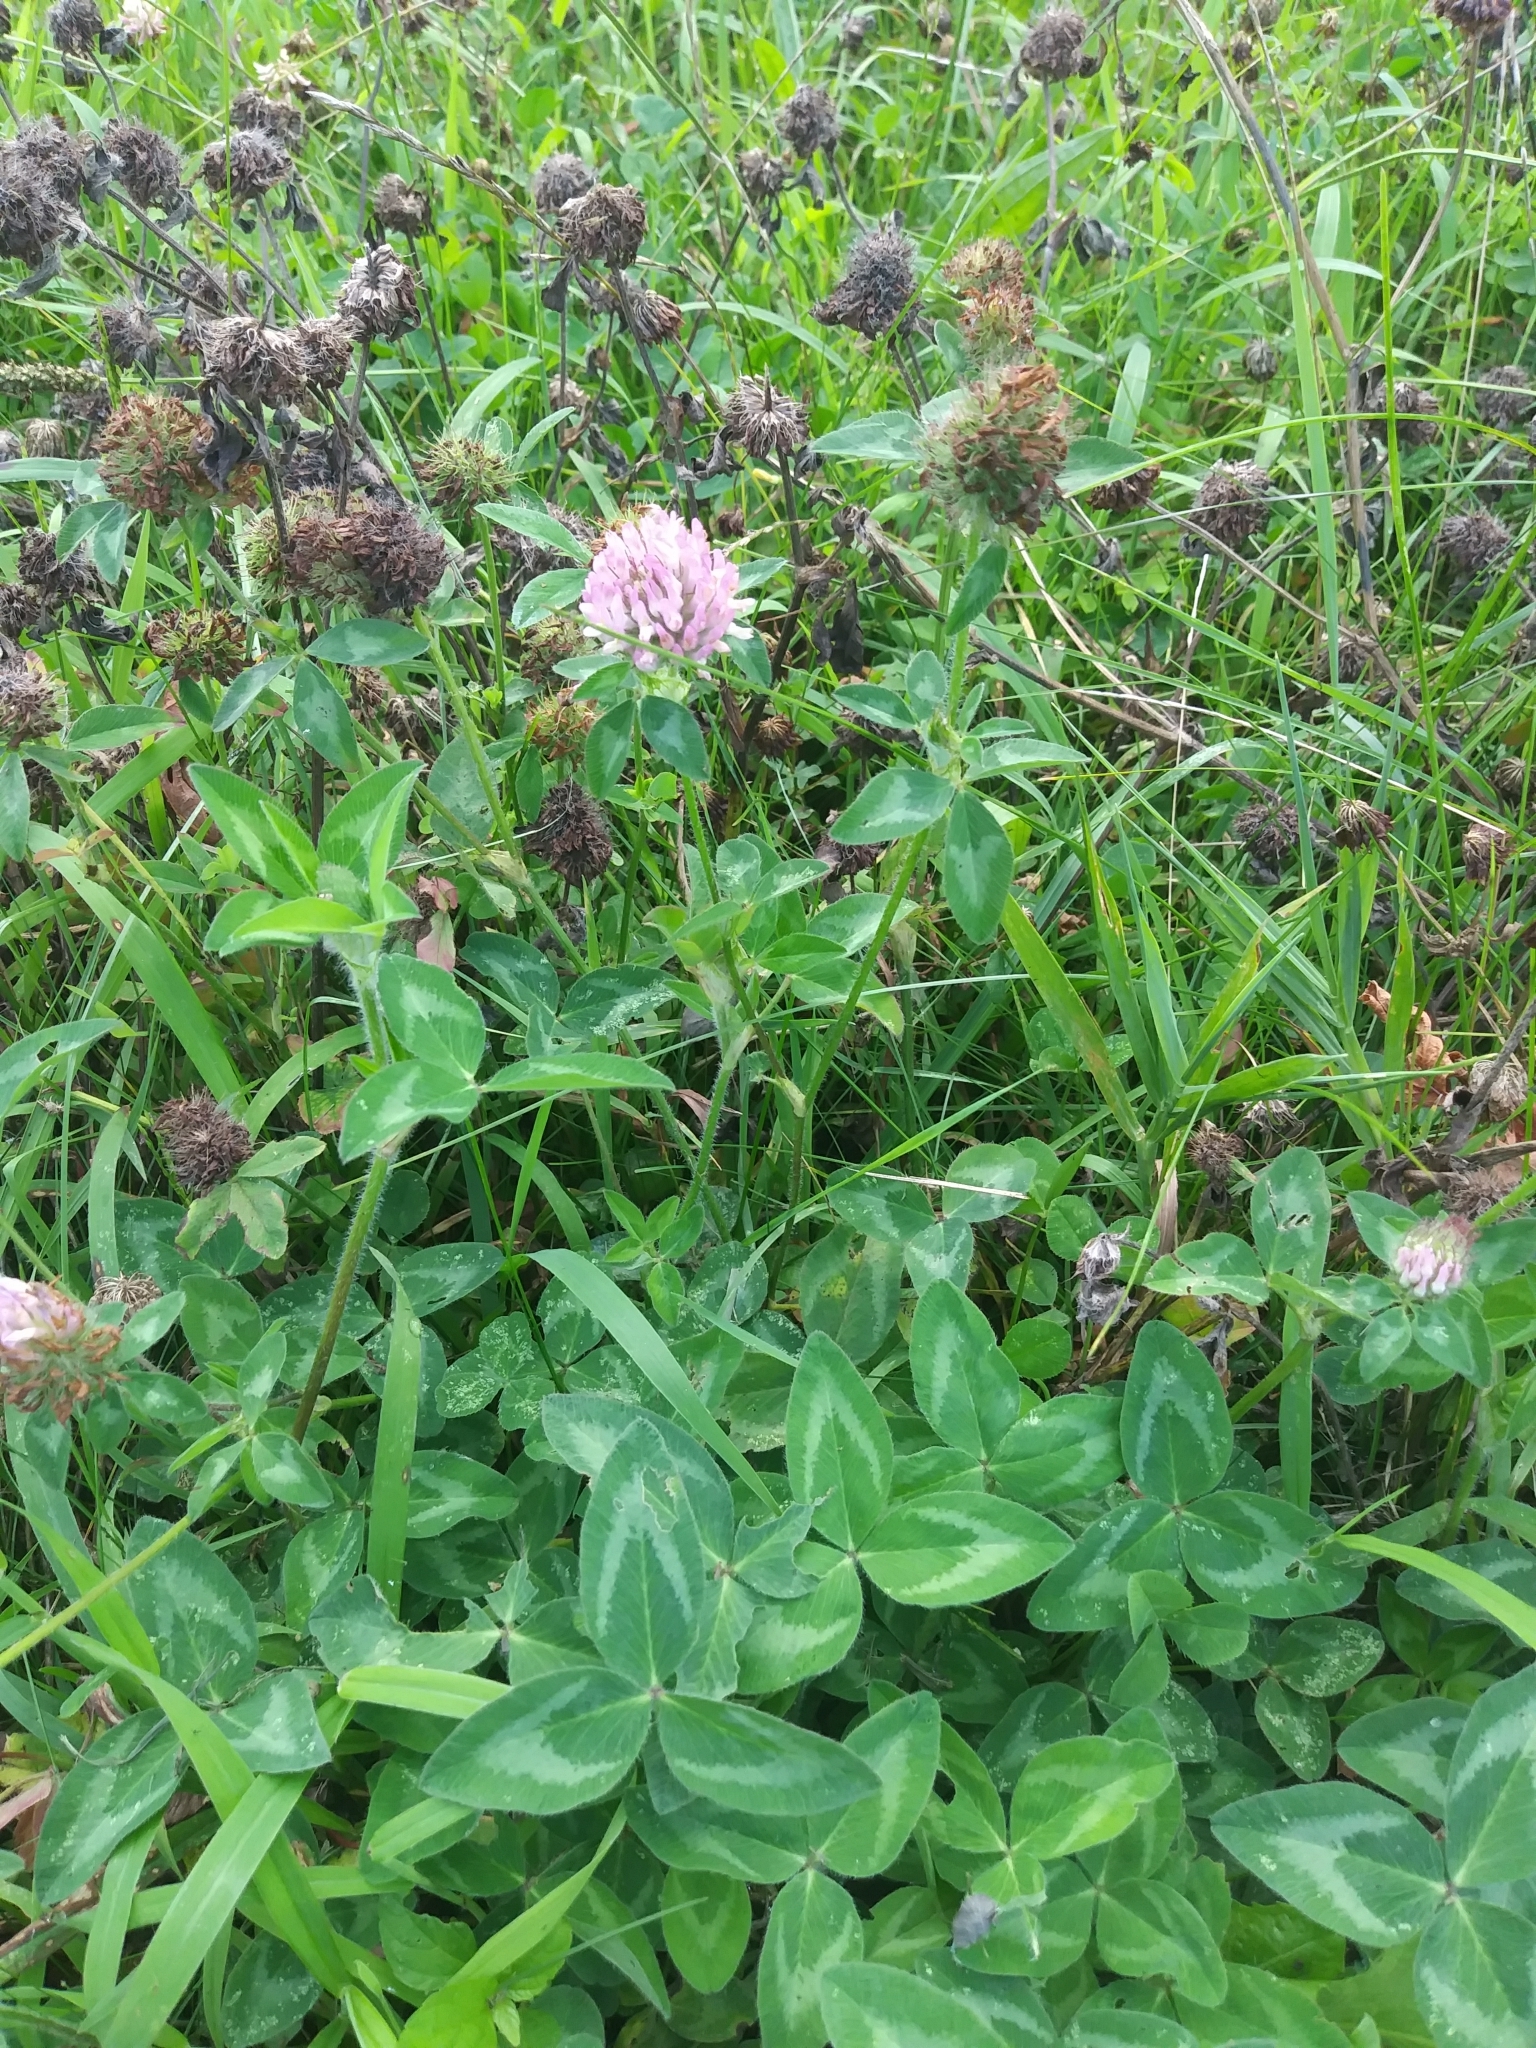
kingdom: Plantae
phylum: Tracheophyta
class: Magnoliopsida
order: Fabales
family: Fabaceae
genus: Trifolium
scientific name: Trifolium pratense
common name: Red clover
